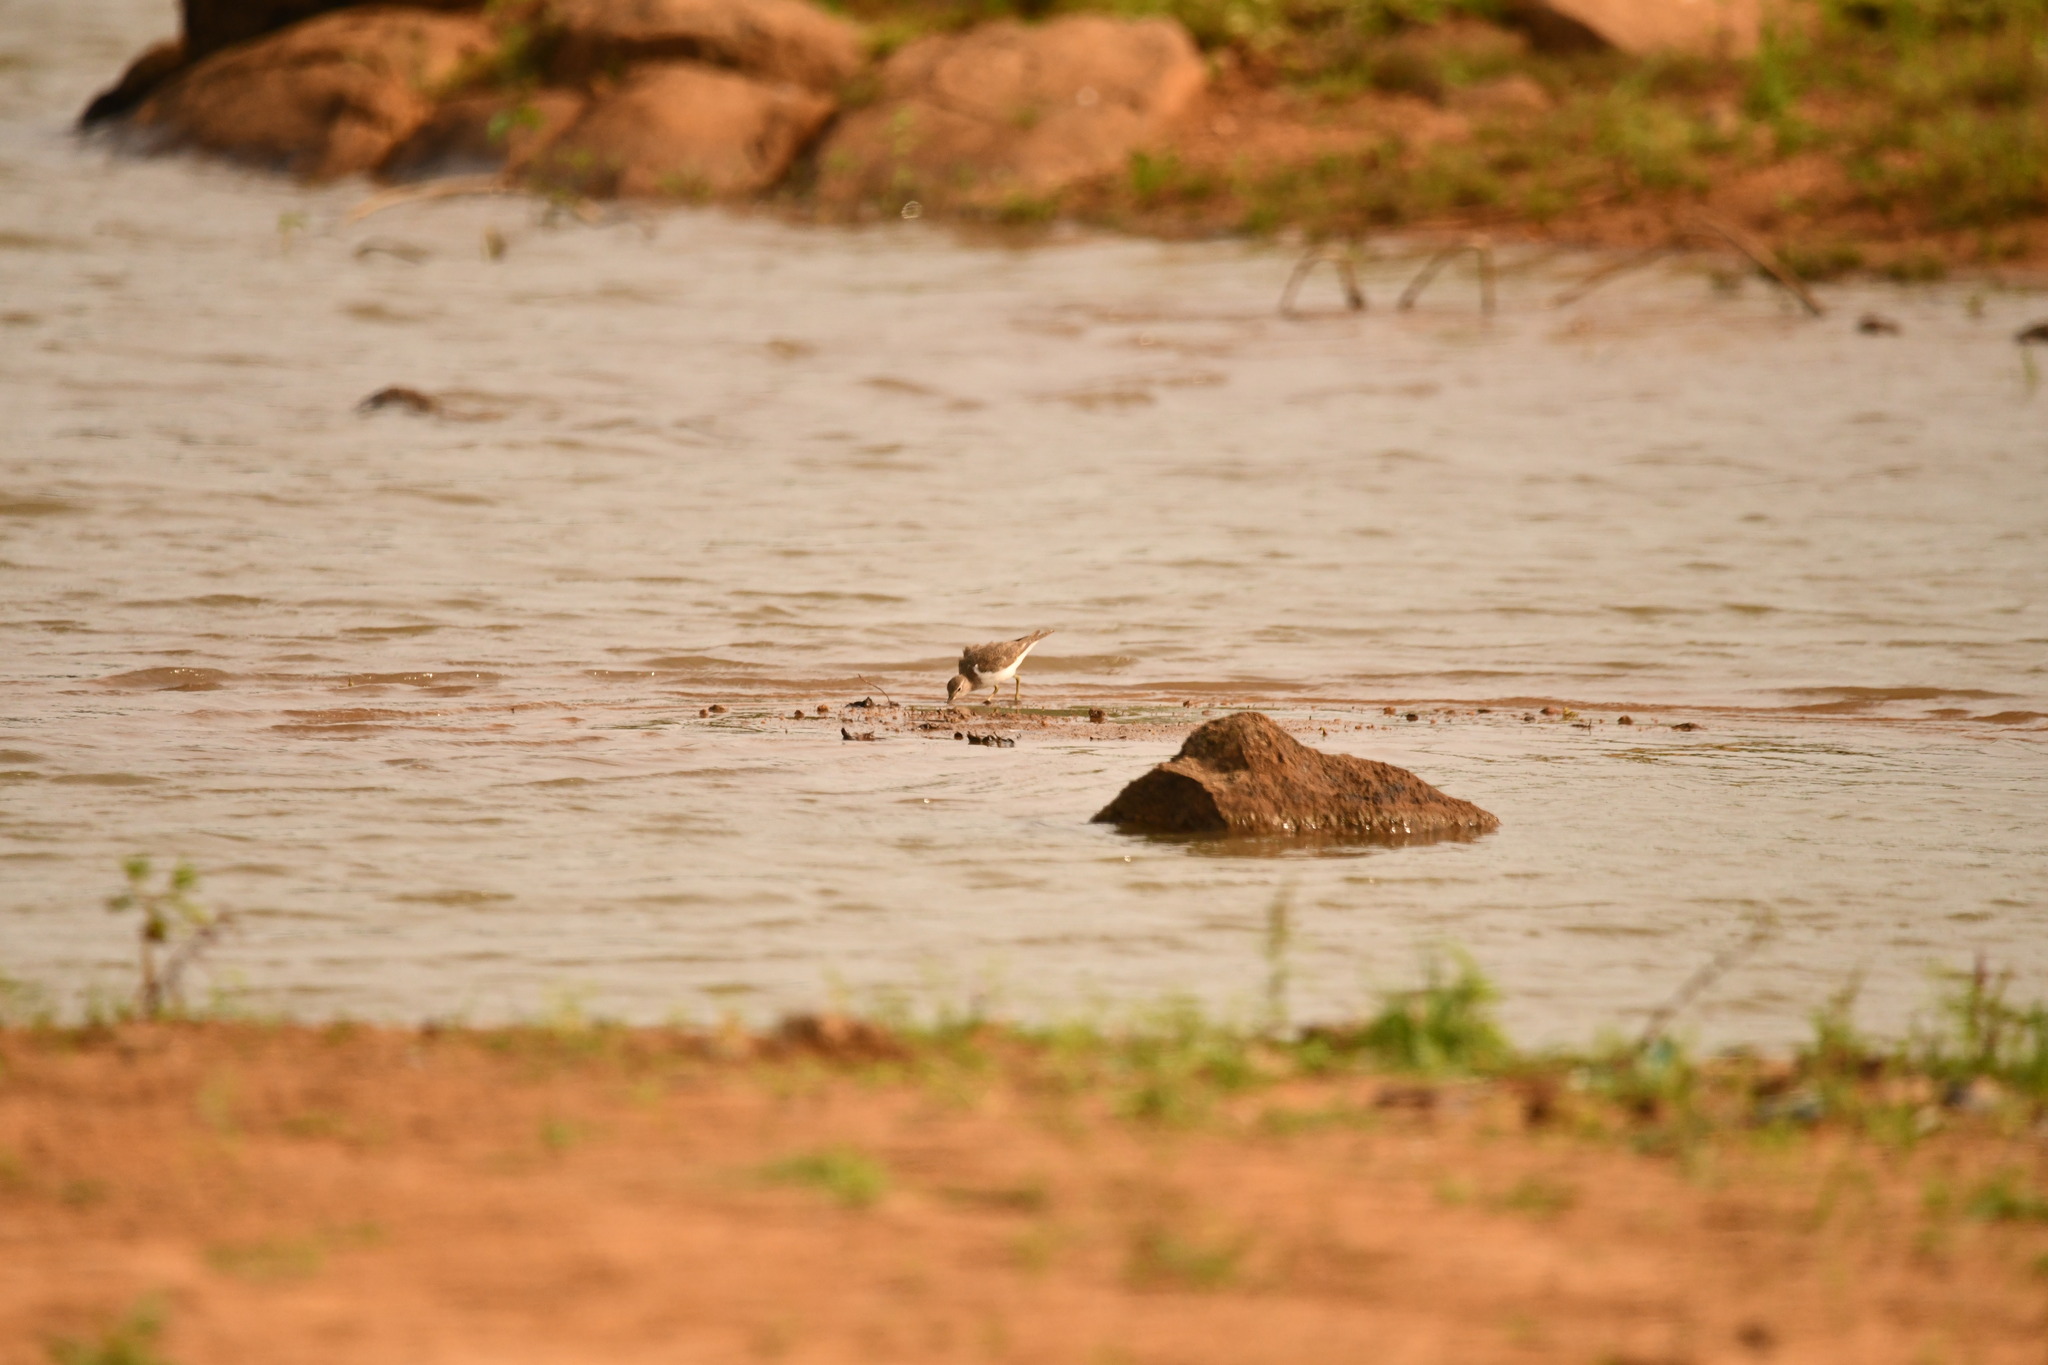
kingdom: Animalia
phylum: Chordata
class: Aves
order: Charadriiformes
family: Scolopacidae
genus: Actitis
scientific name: Actitis hypoleucos
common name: Common sandpiper
